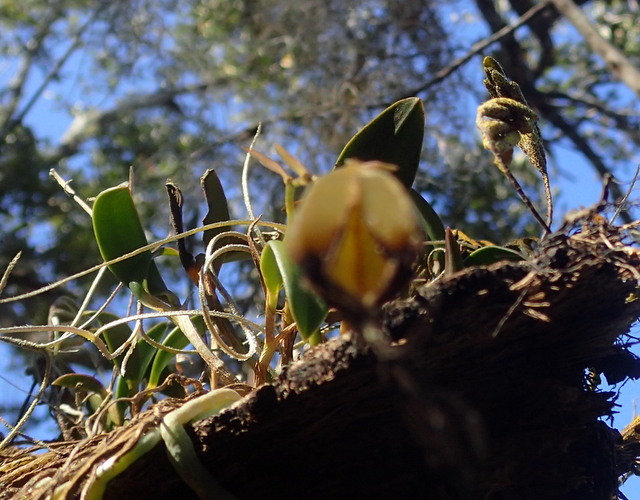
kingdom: Plantae
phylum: Tracheophyta
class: Liliopsida
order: Asparagales
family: Orchidaceae
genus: Epidendrum
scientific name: Epidendrum conopseum
